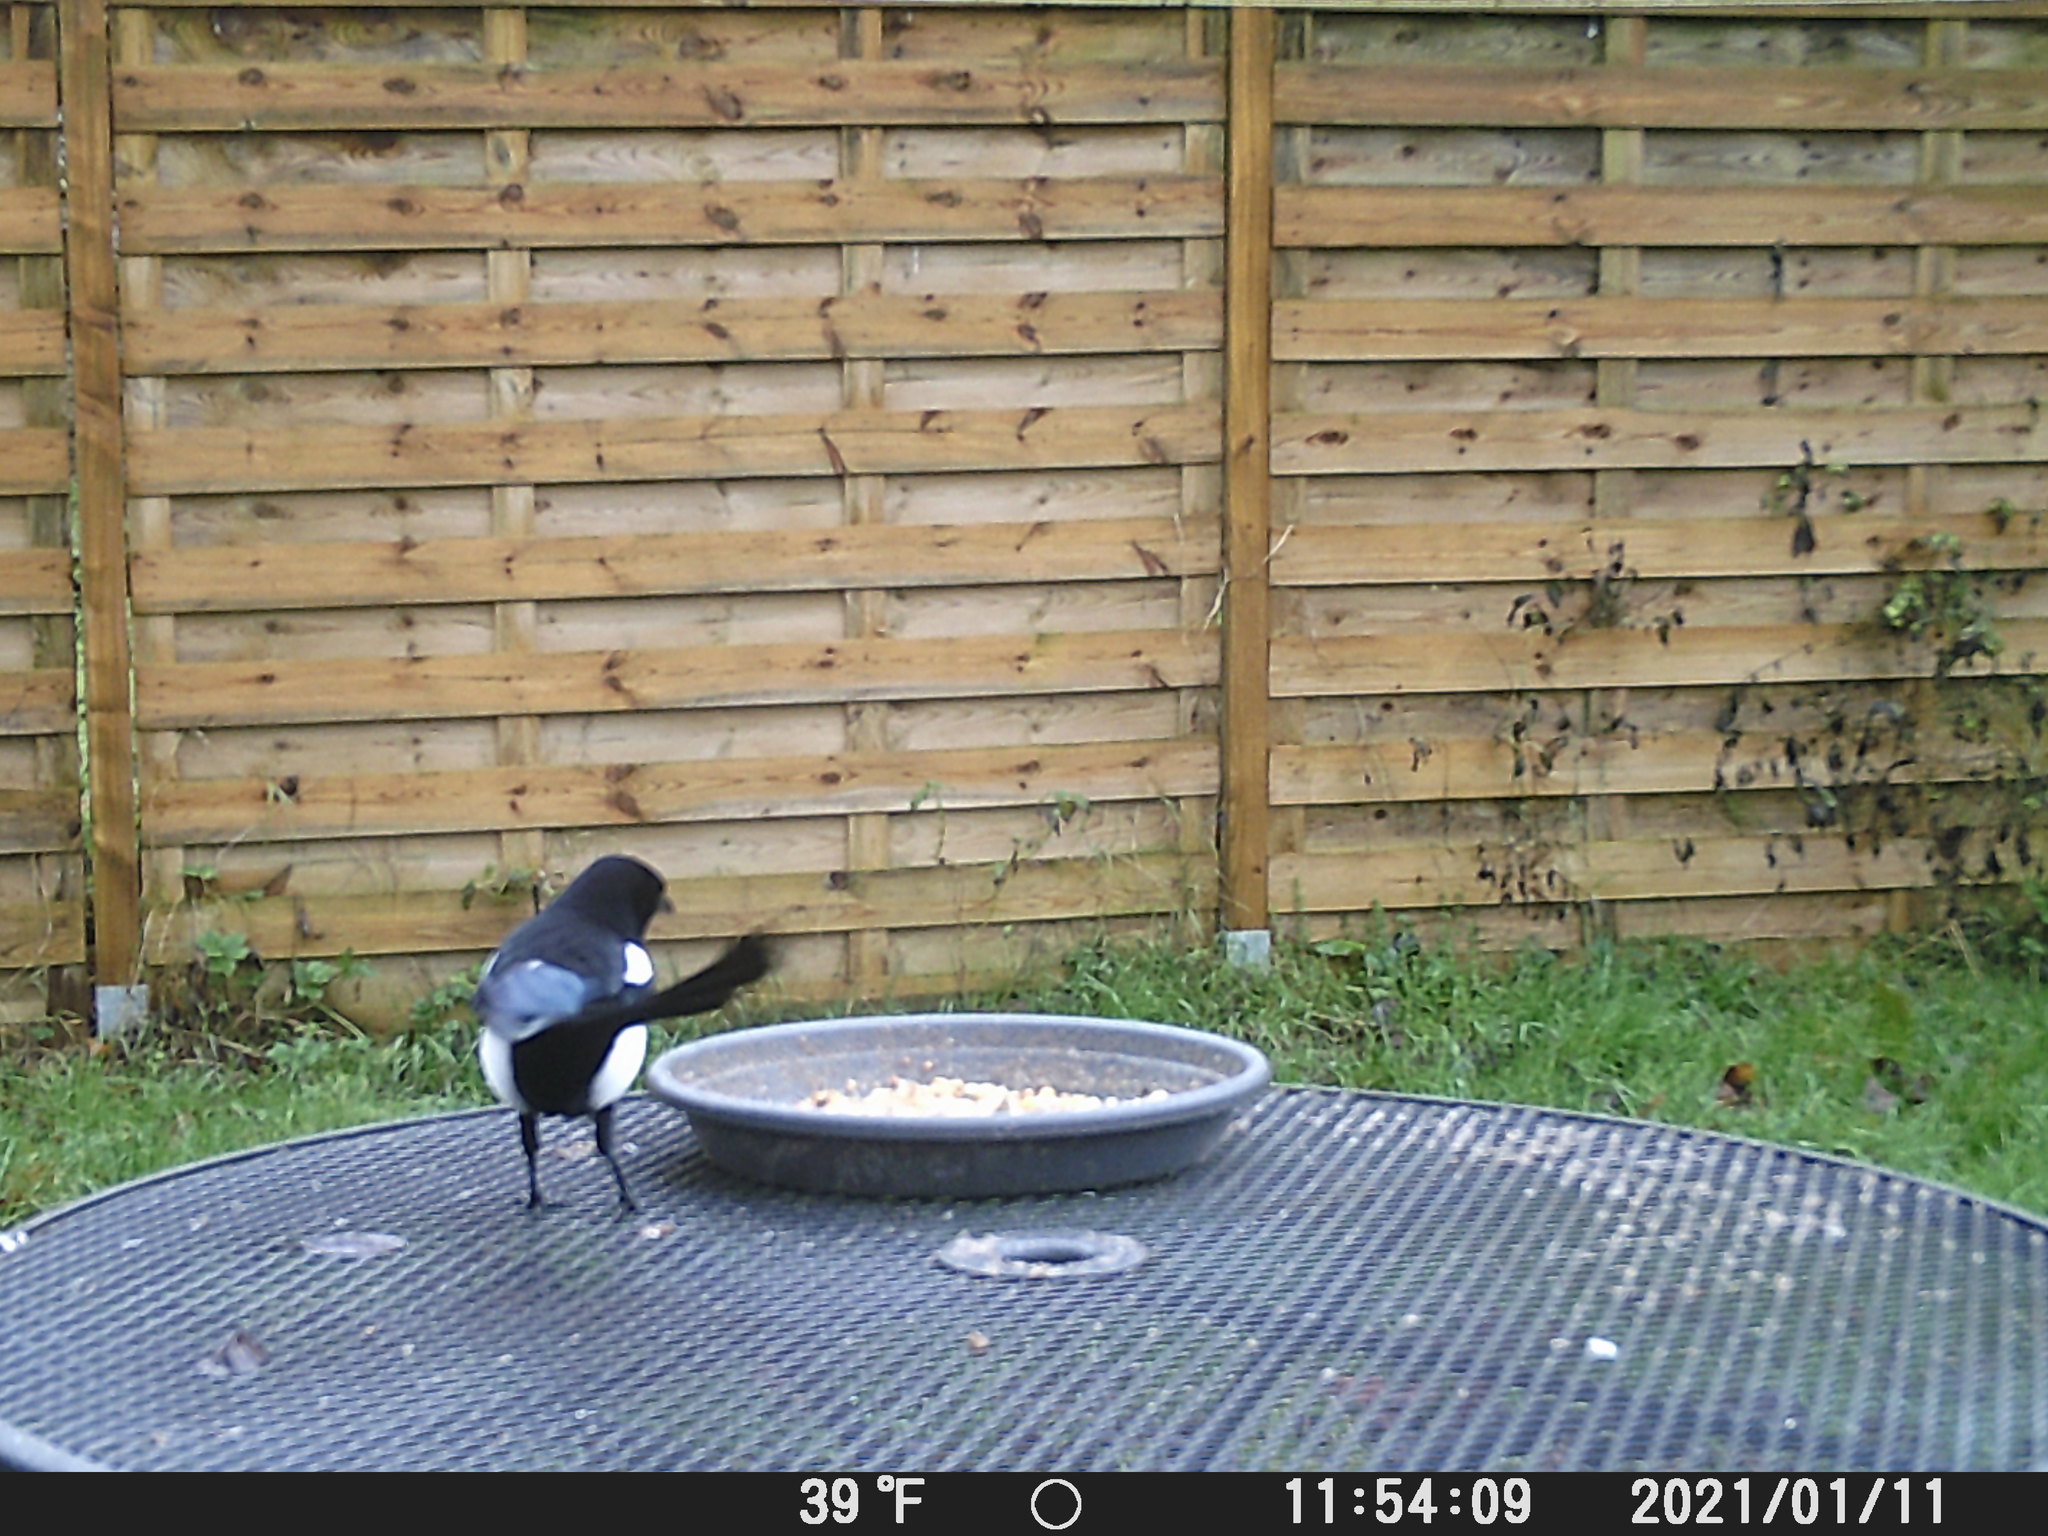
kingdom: Animalia
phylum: Chordata
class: Aves
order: Passeriformes
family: Corvidae
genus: Pica
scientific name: Pica pica
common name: Eurasian magpie
